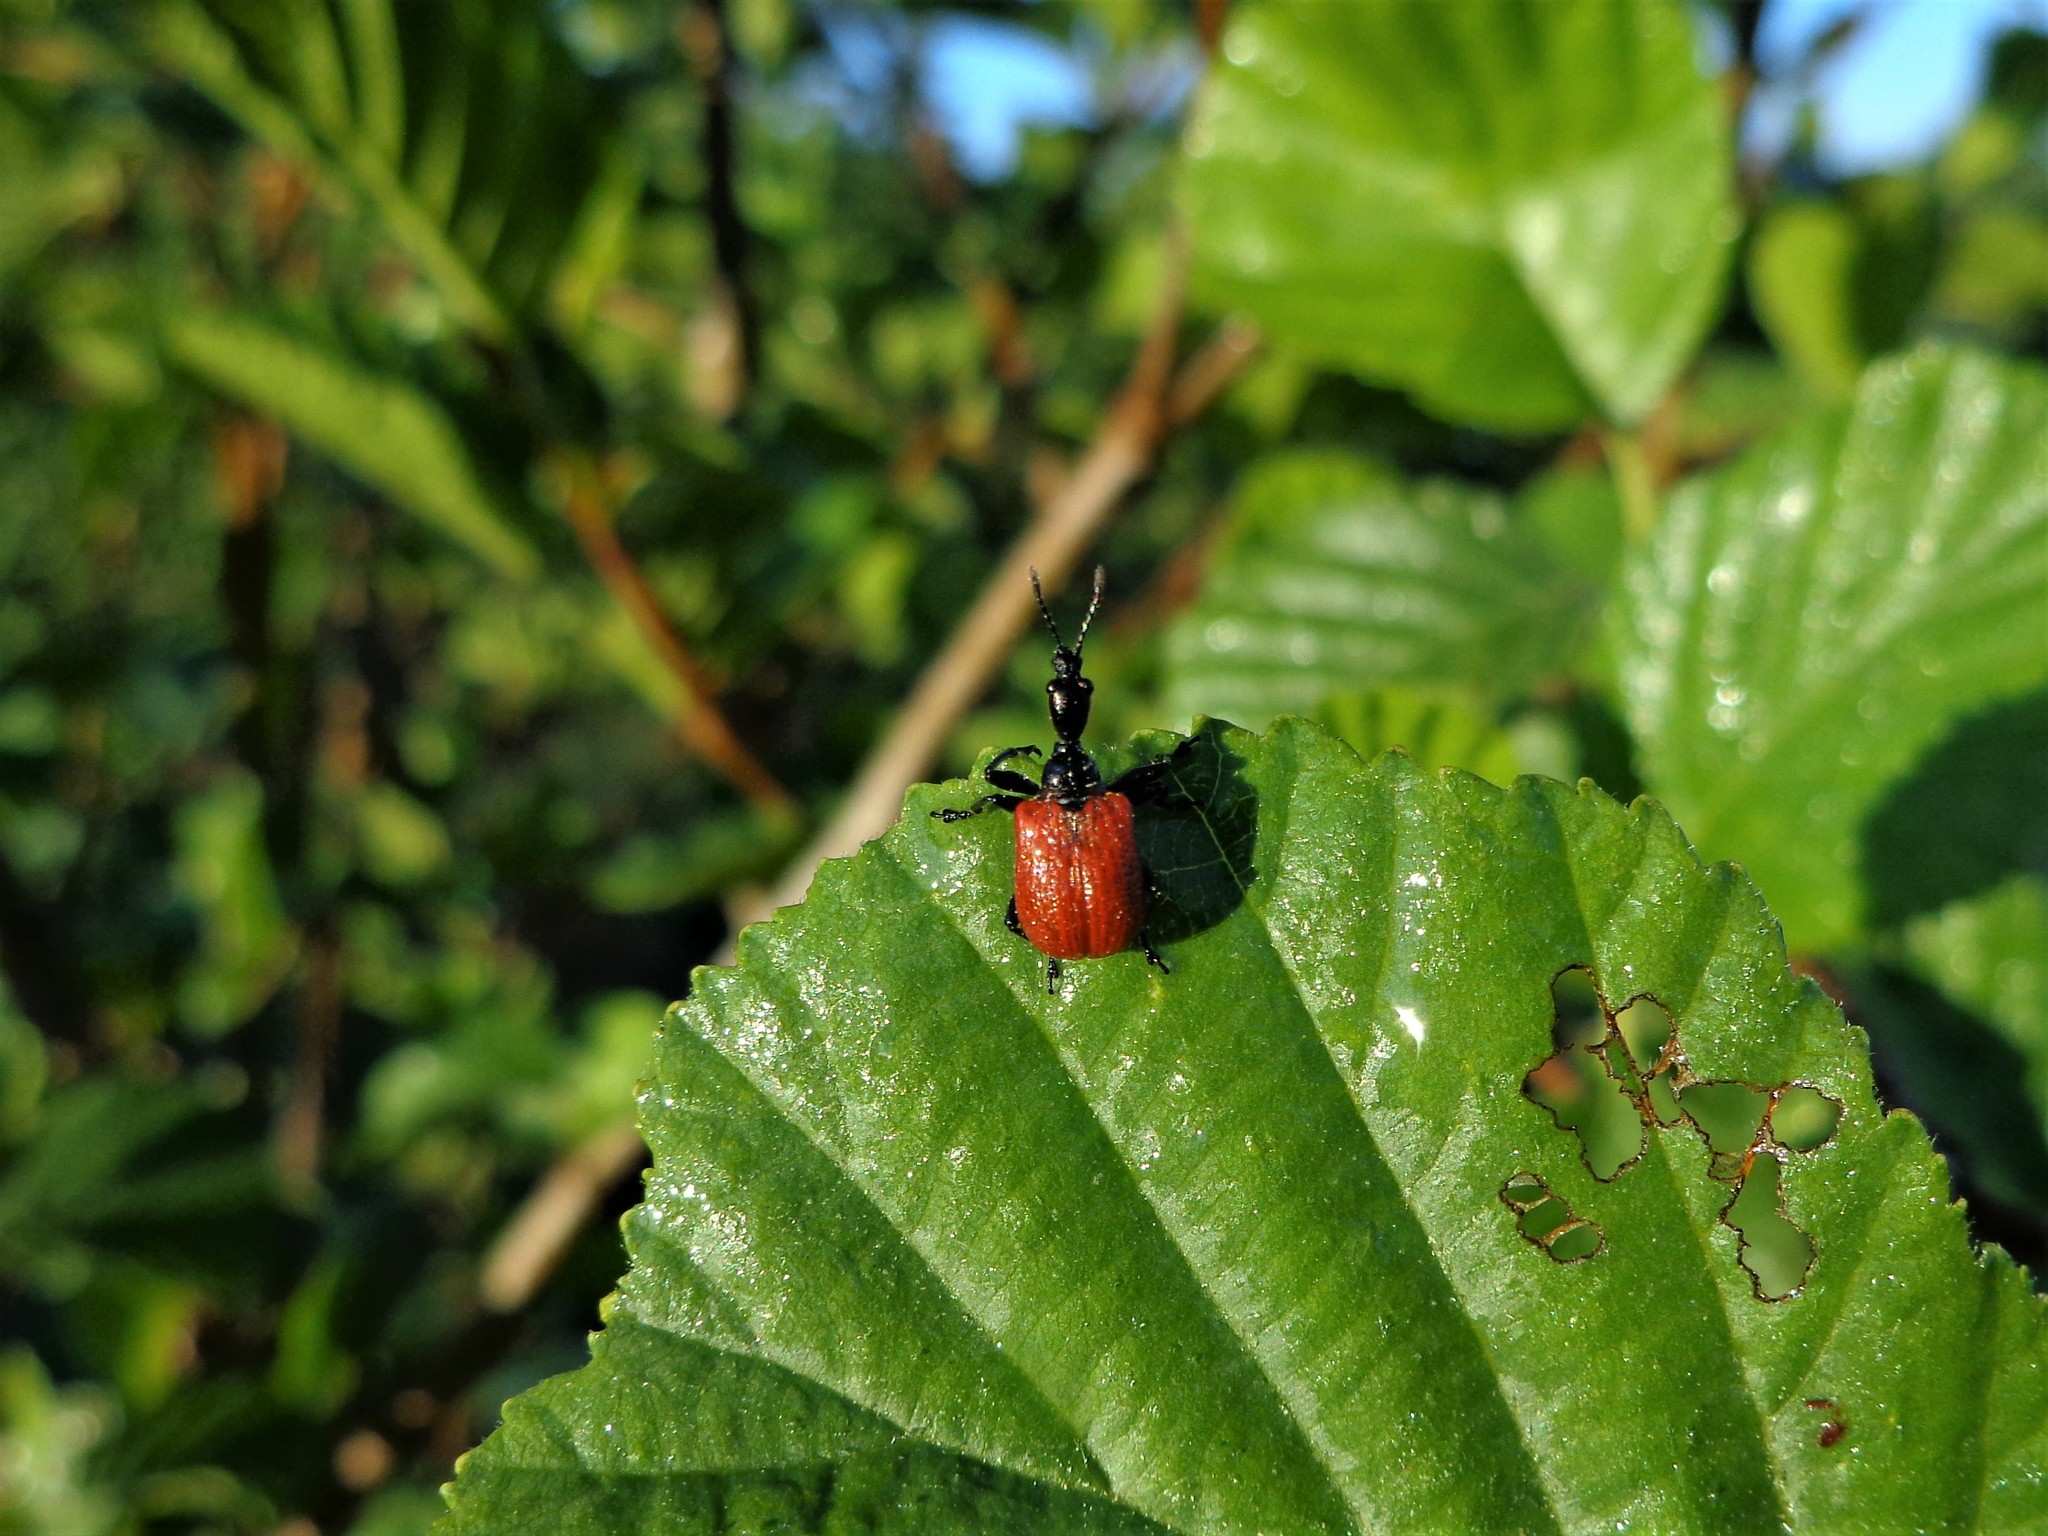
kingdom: Animalia
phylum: Arthropoda
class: Insecta
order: Coleoptera
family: Attelabidae
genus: Apoderus
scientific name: Apoderus coryli
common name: Hazel leaf roller
